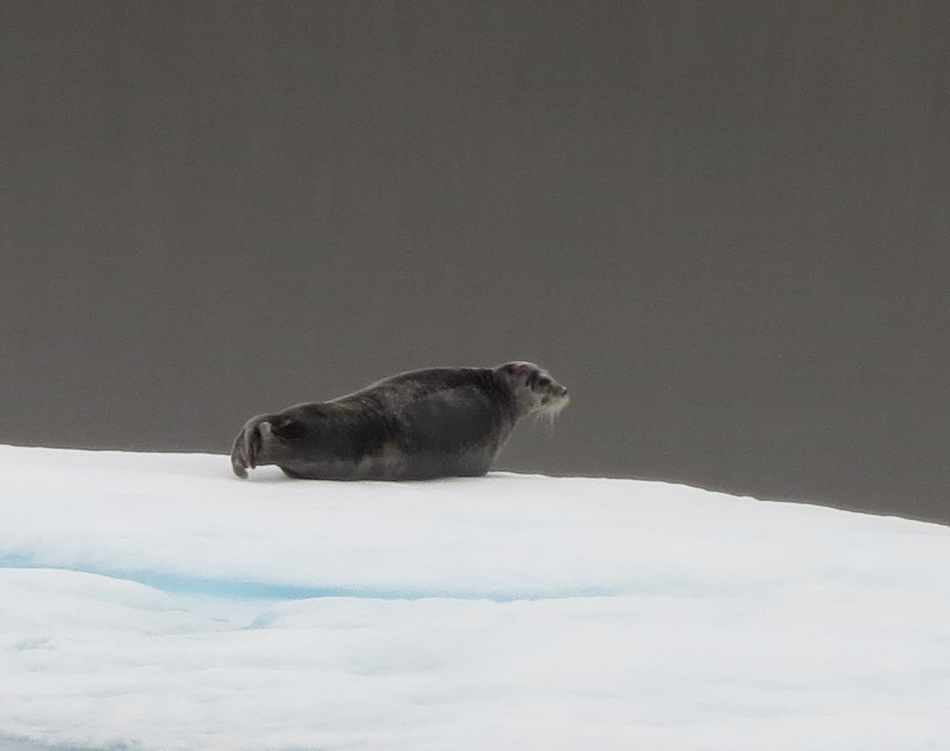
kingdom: Animalia
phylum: Chordata
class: Mammalia
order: Carnivora
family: Phocidae
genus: Erignathus
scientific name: Erignathus barbatus
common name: Bearded seal
